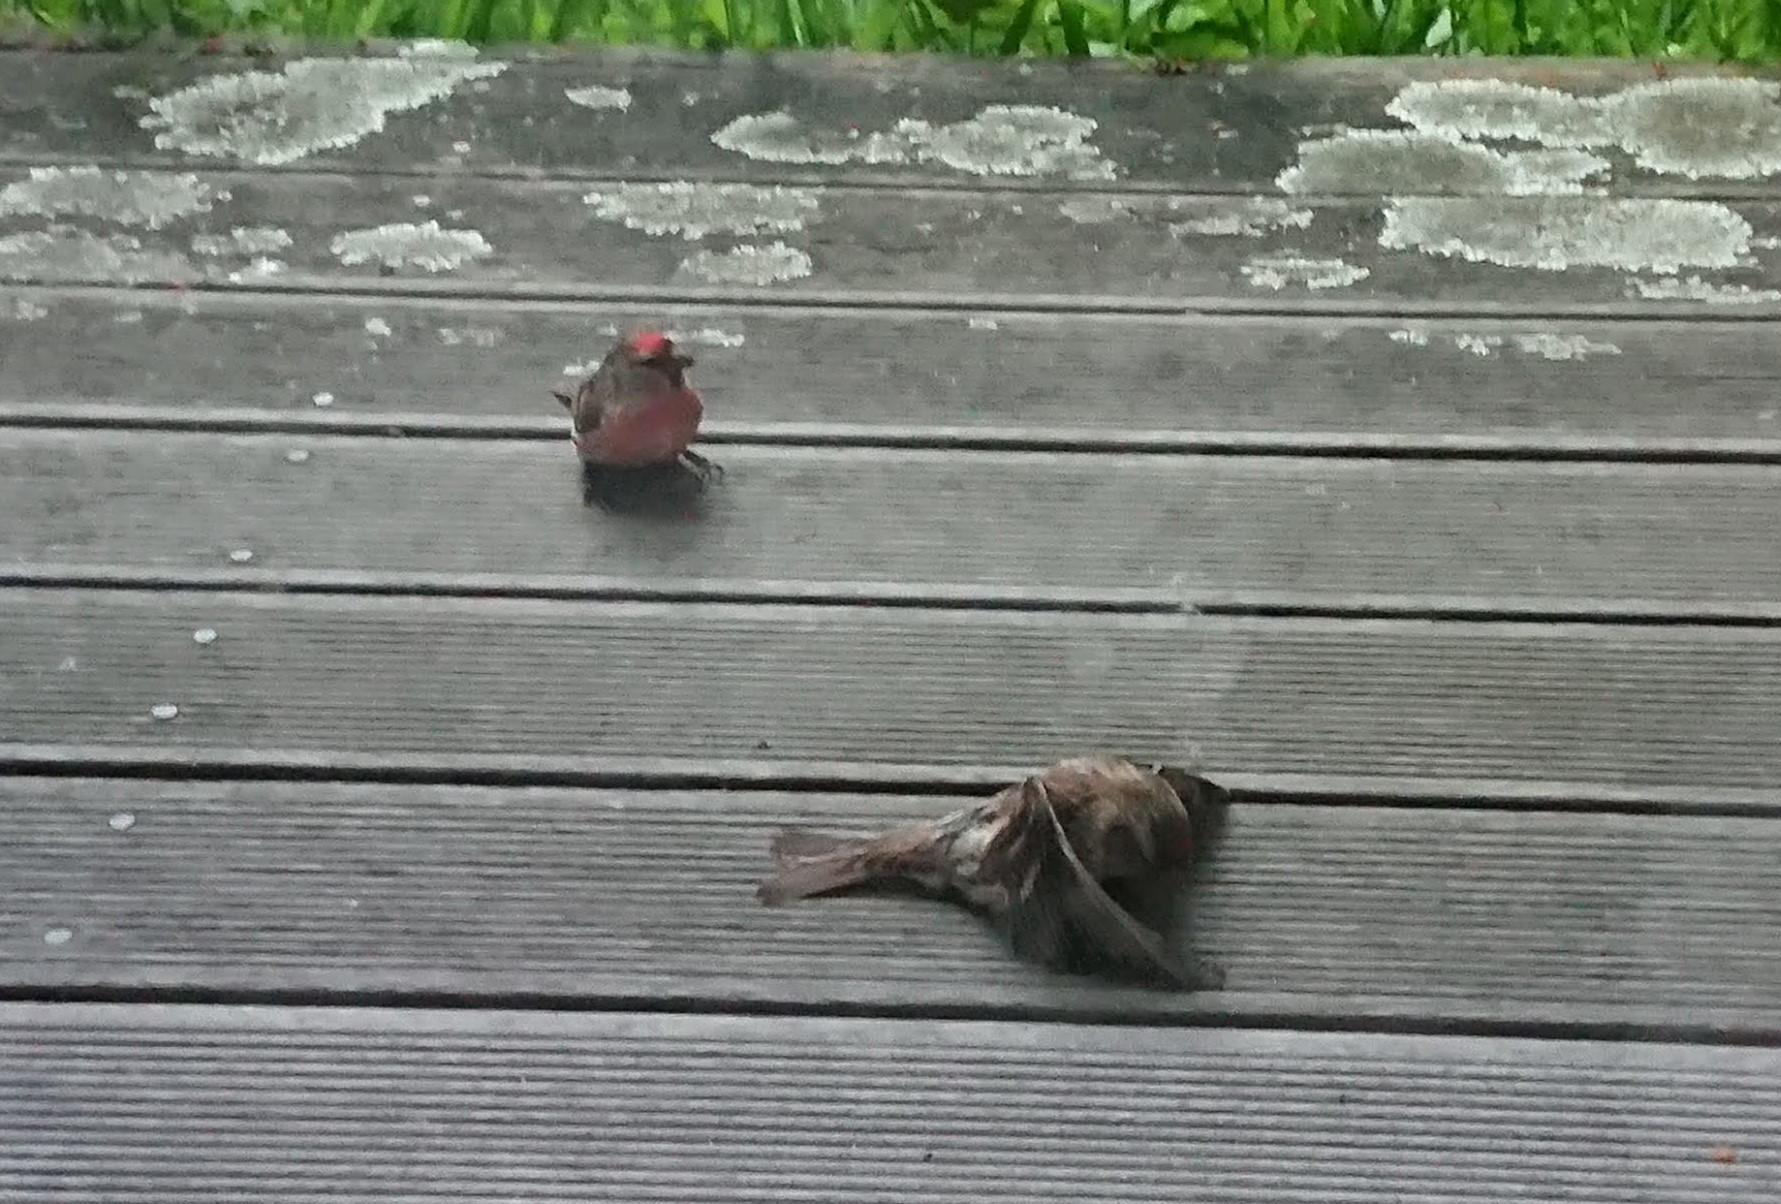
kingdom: Animalia
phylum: Chordata
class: Aves
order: Passeriformes
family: Fringillidae
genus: Acanthis
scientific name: Acanthis flammea
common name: Common redpoll
